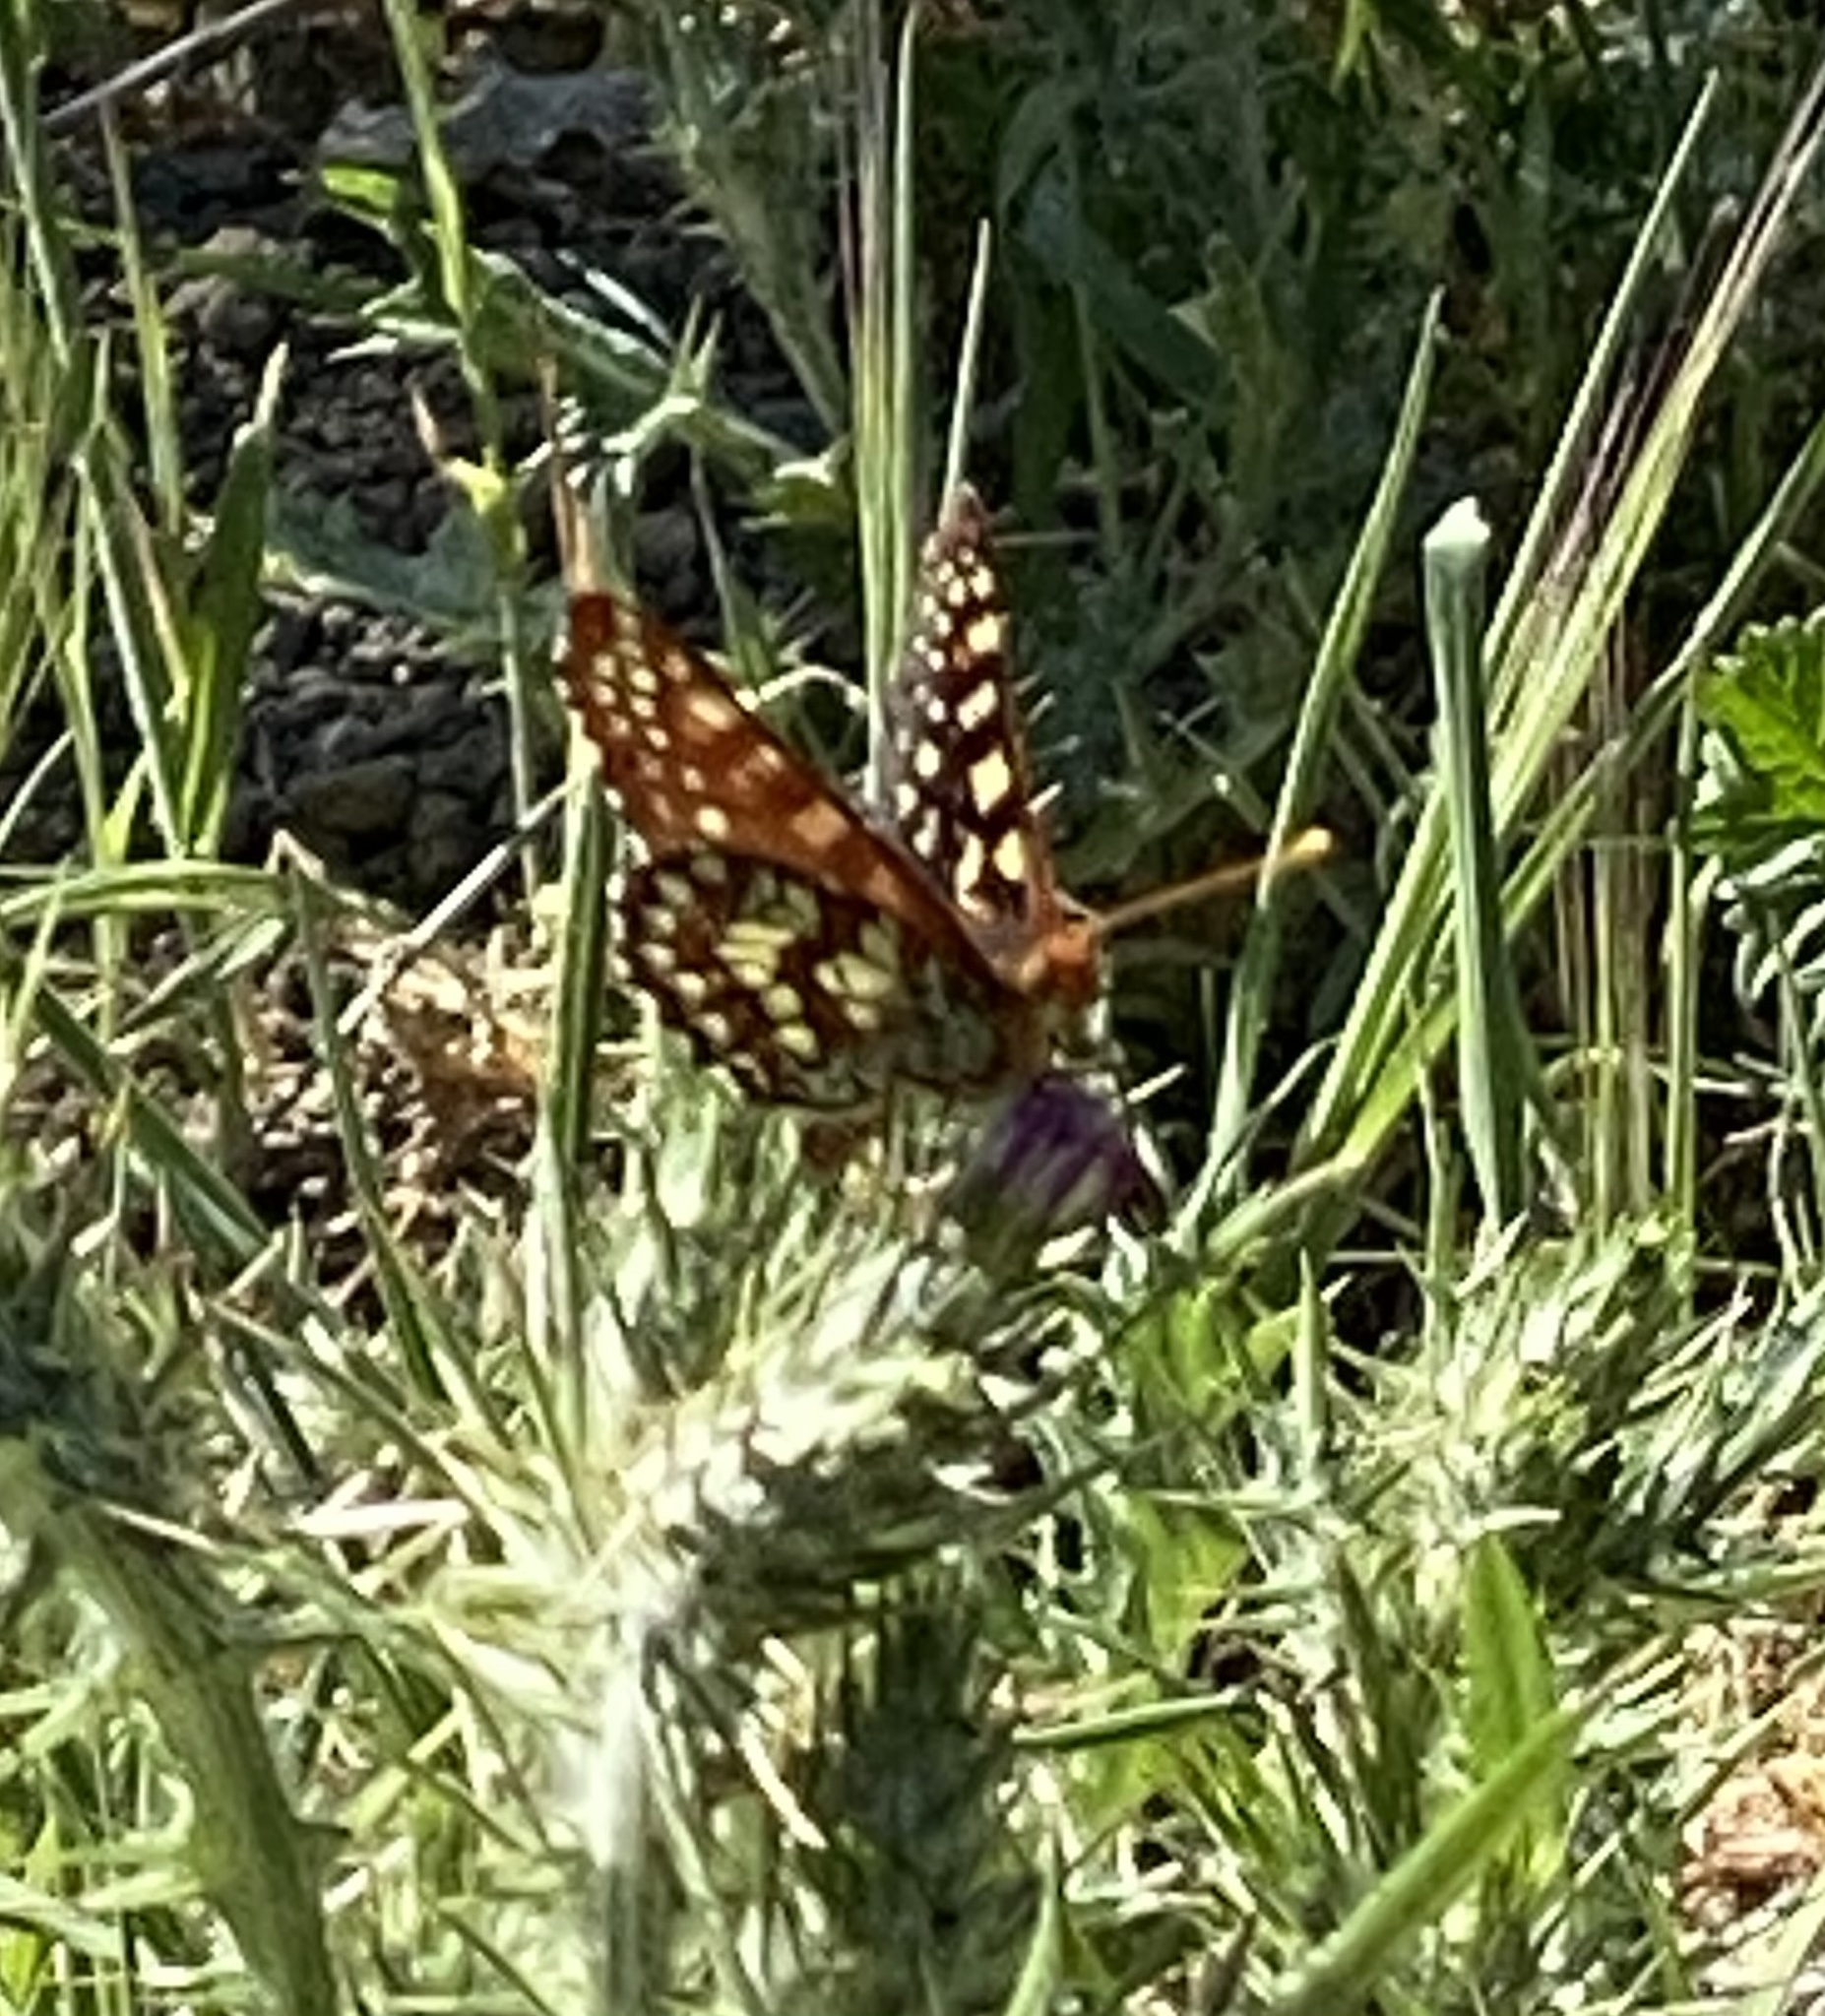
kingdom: Animalia
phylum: Arthropoda
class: Insecta
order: Lepidoptera
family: Nymphalidae
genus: Occidryas
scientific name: Occidryas chalcedona
